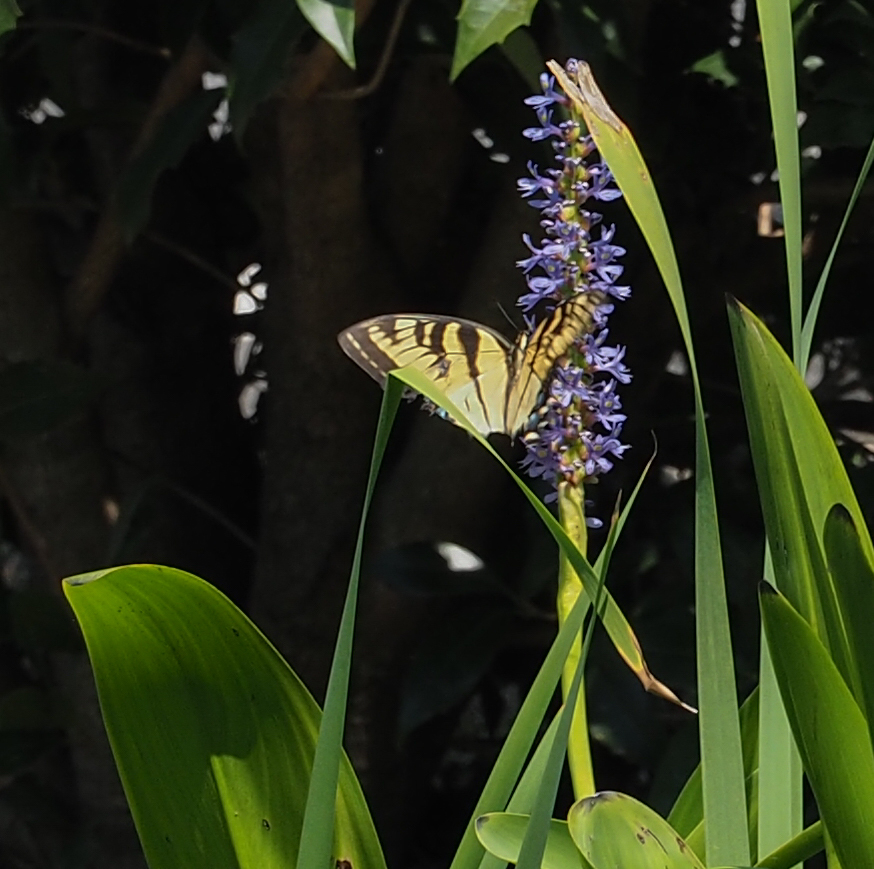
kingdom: Animalia
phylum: Arthropoda
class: Insecta
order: Lepidoptera
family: Papilionidae
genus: Papilio
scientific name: Papilio glaucus
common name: Tiger swallowtail
